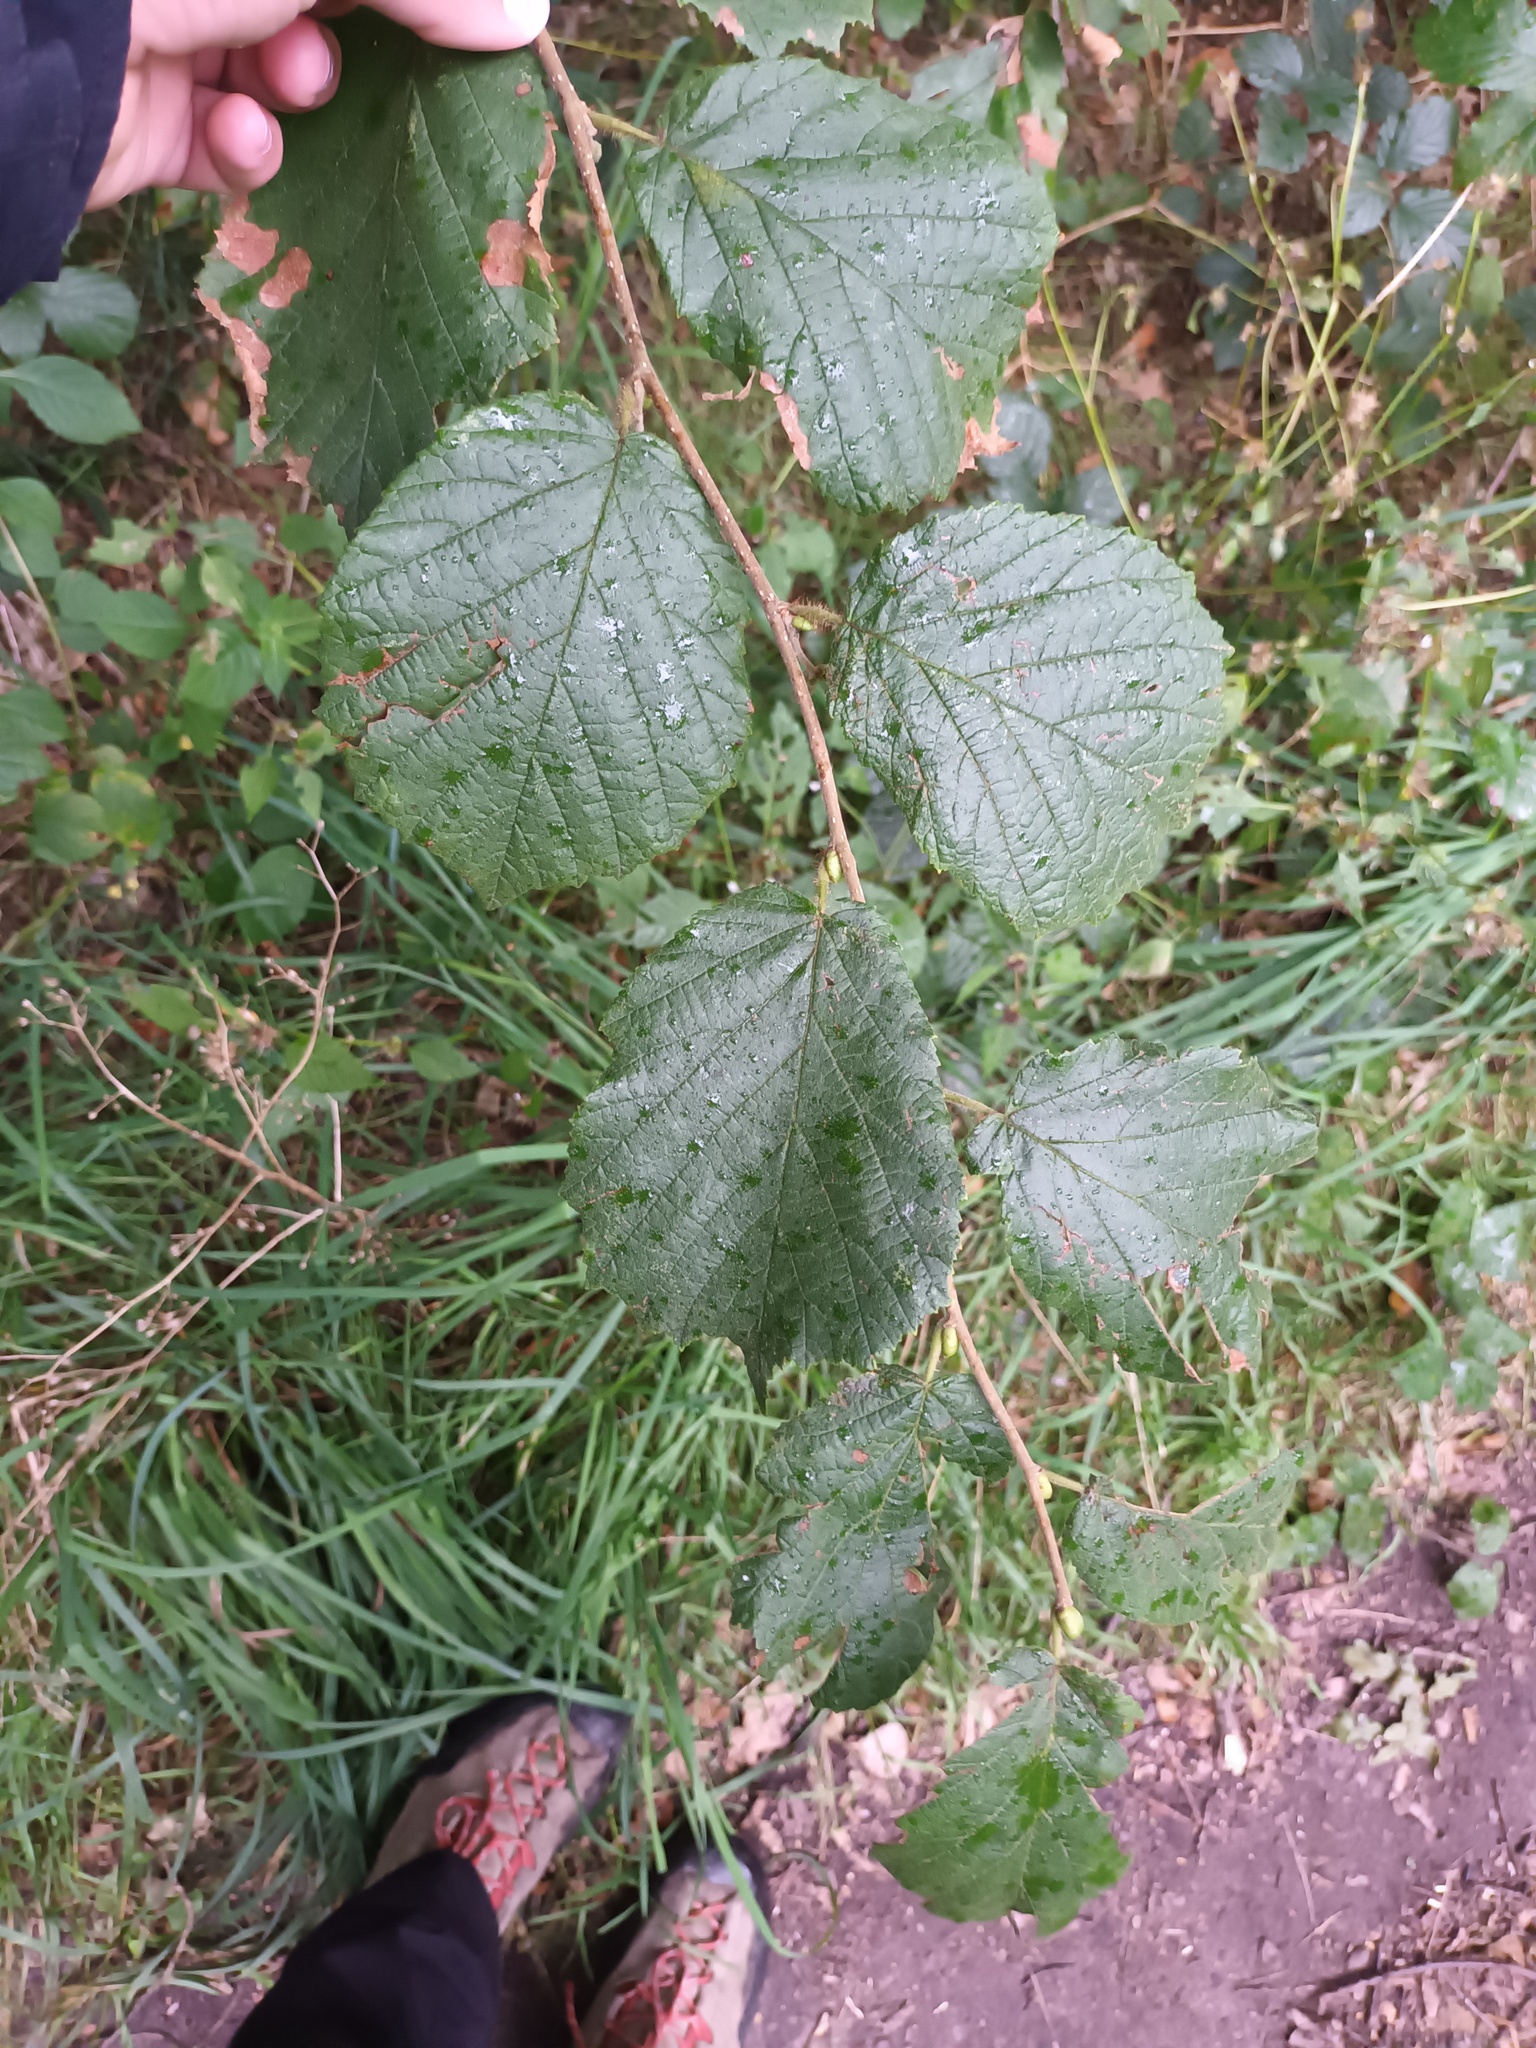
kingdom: Plantae
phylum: Tracheophyta
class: Magnoliopsida
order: Fagales
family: Betulaceae
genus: Corylus
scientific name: Corylus avellana
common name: European hazel
